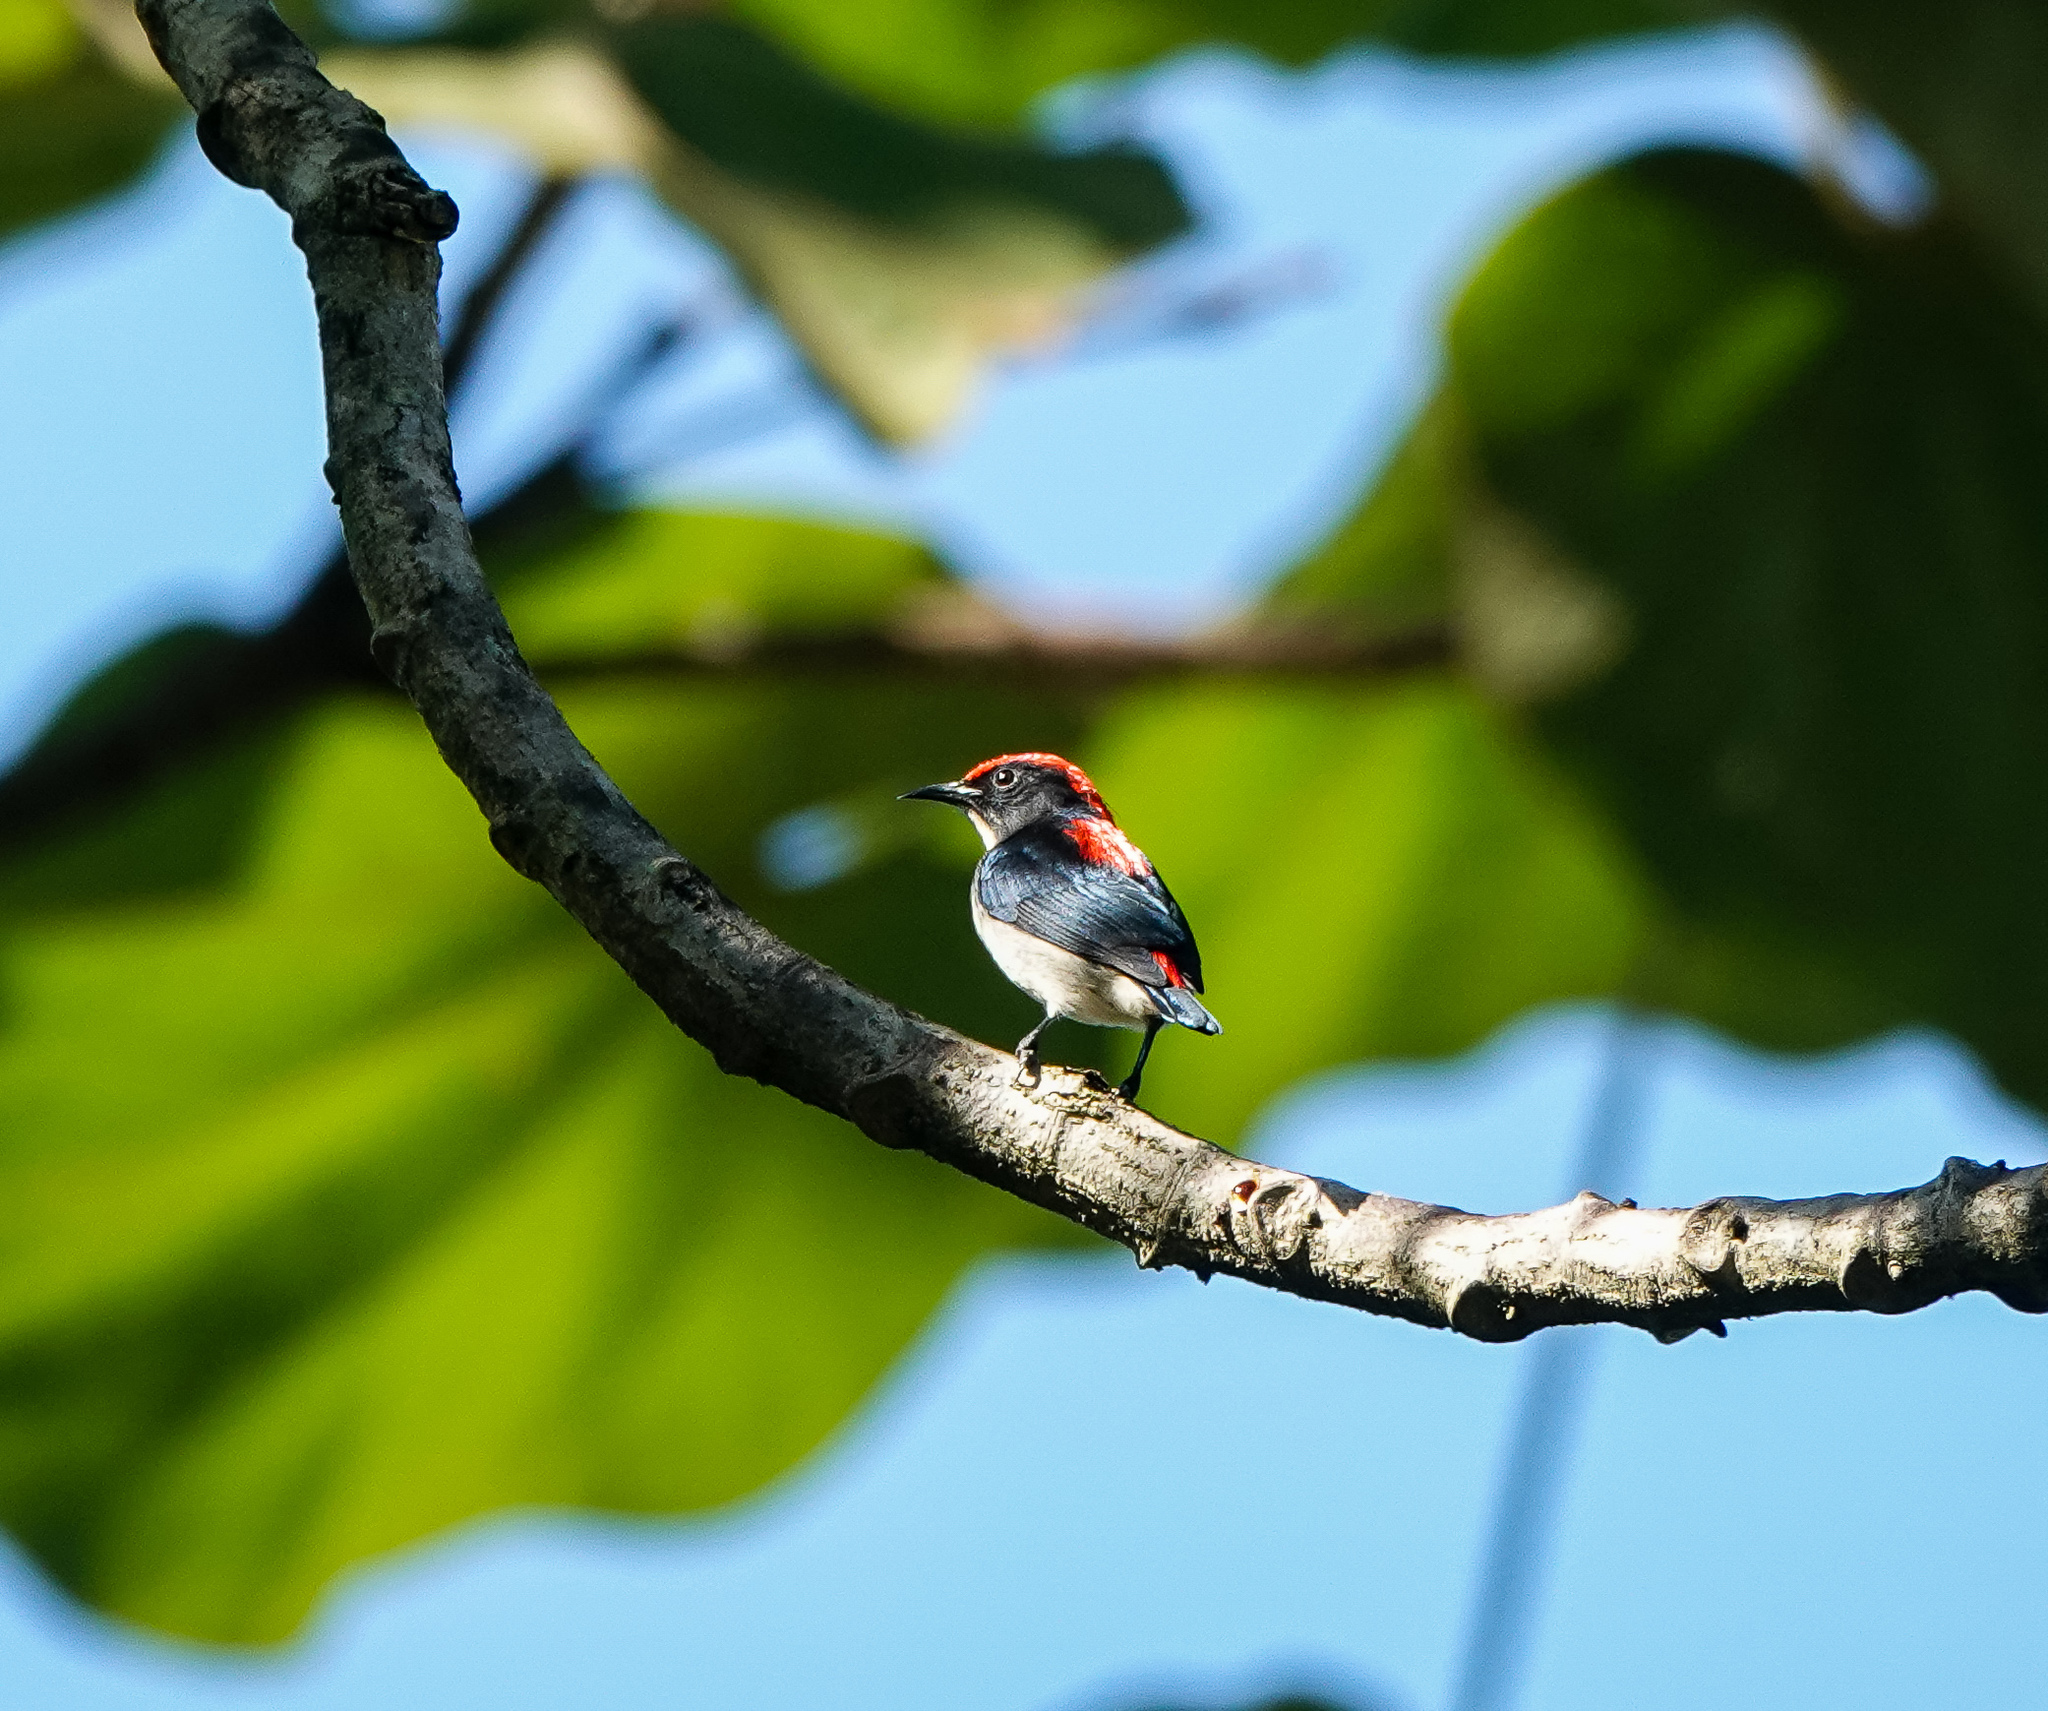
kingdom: Animalia
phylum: Chordata
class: Aves
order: Passeriformes
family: Dicaeidae
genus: Dicaeum
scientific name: Dicaeum cruentatum
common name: Scarlet-backed flowerpecker
